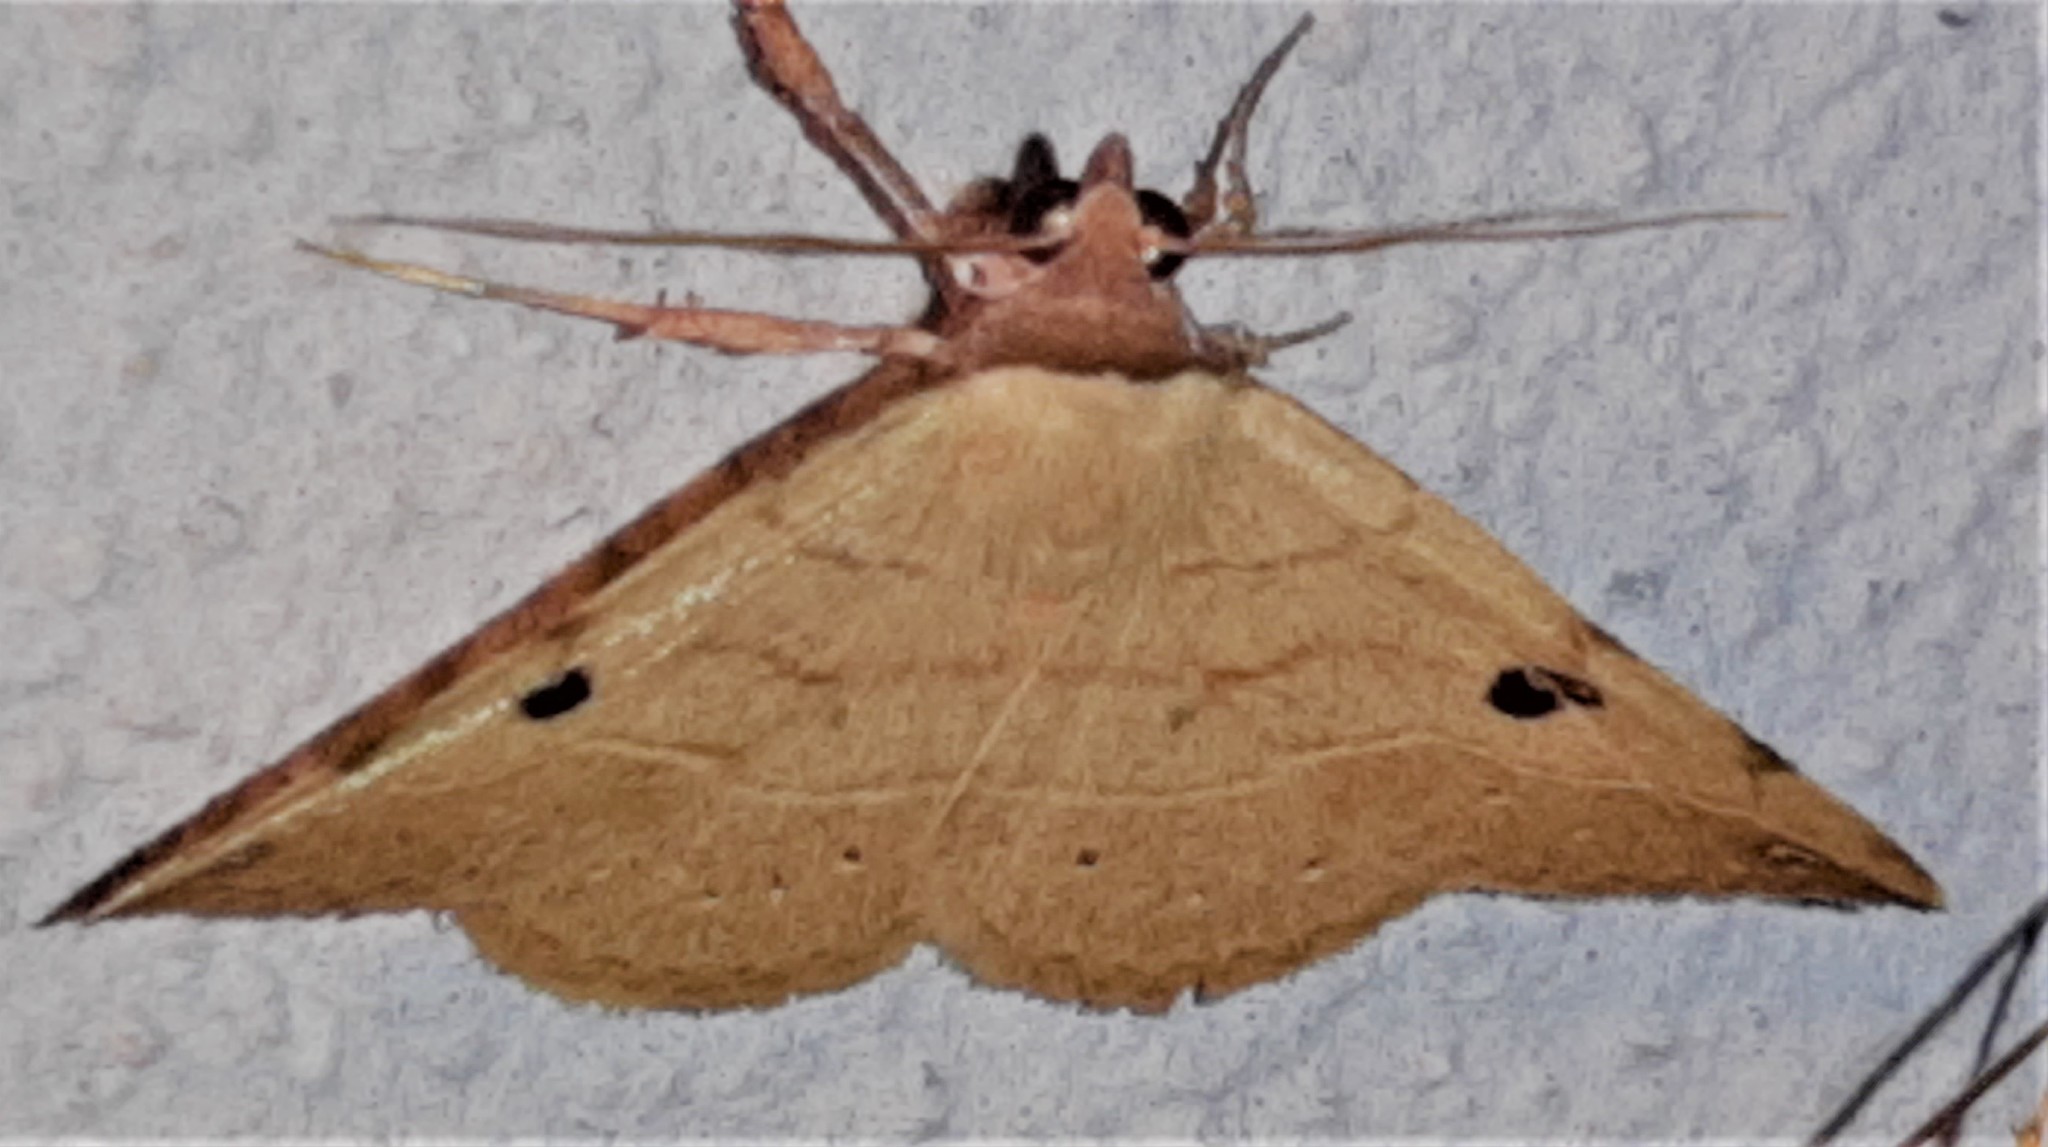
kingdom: Animalia
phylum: Arthropoda
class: Insecta
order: Lepidoptera
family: Erebidae
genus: Hemeroplanis
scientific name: Hemeroplanis scopulepes
